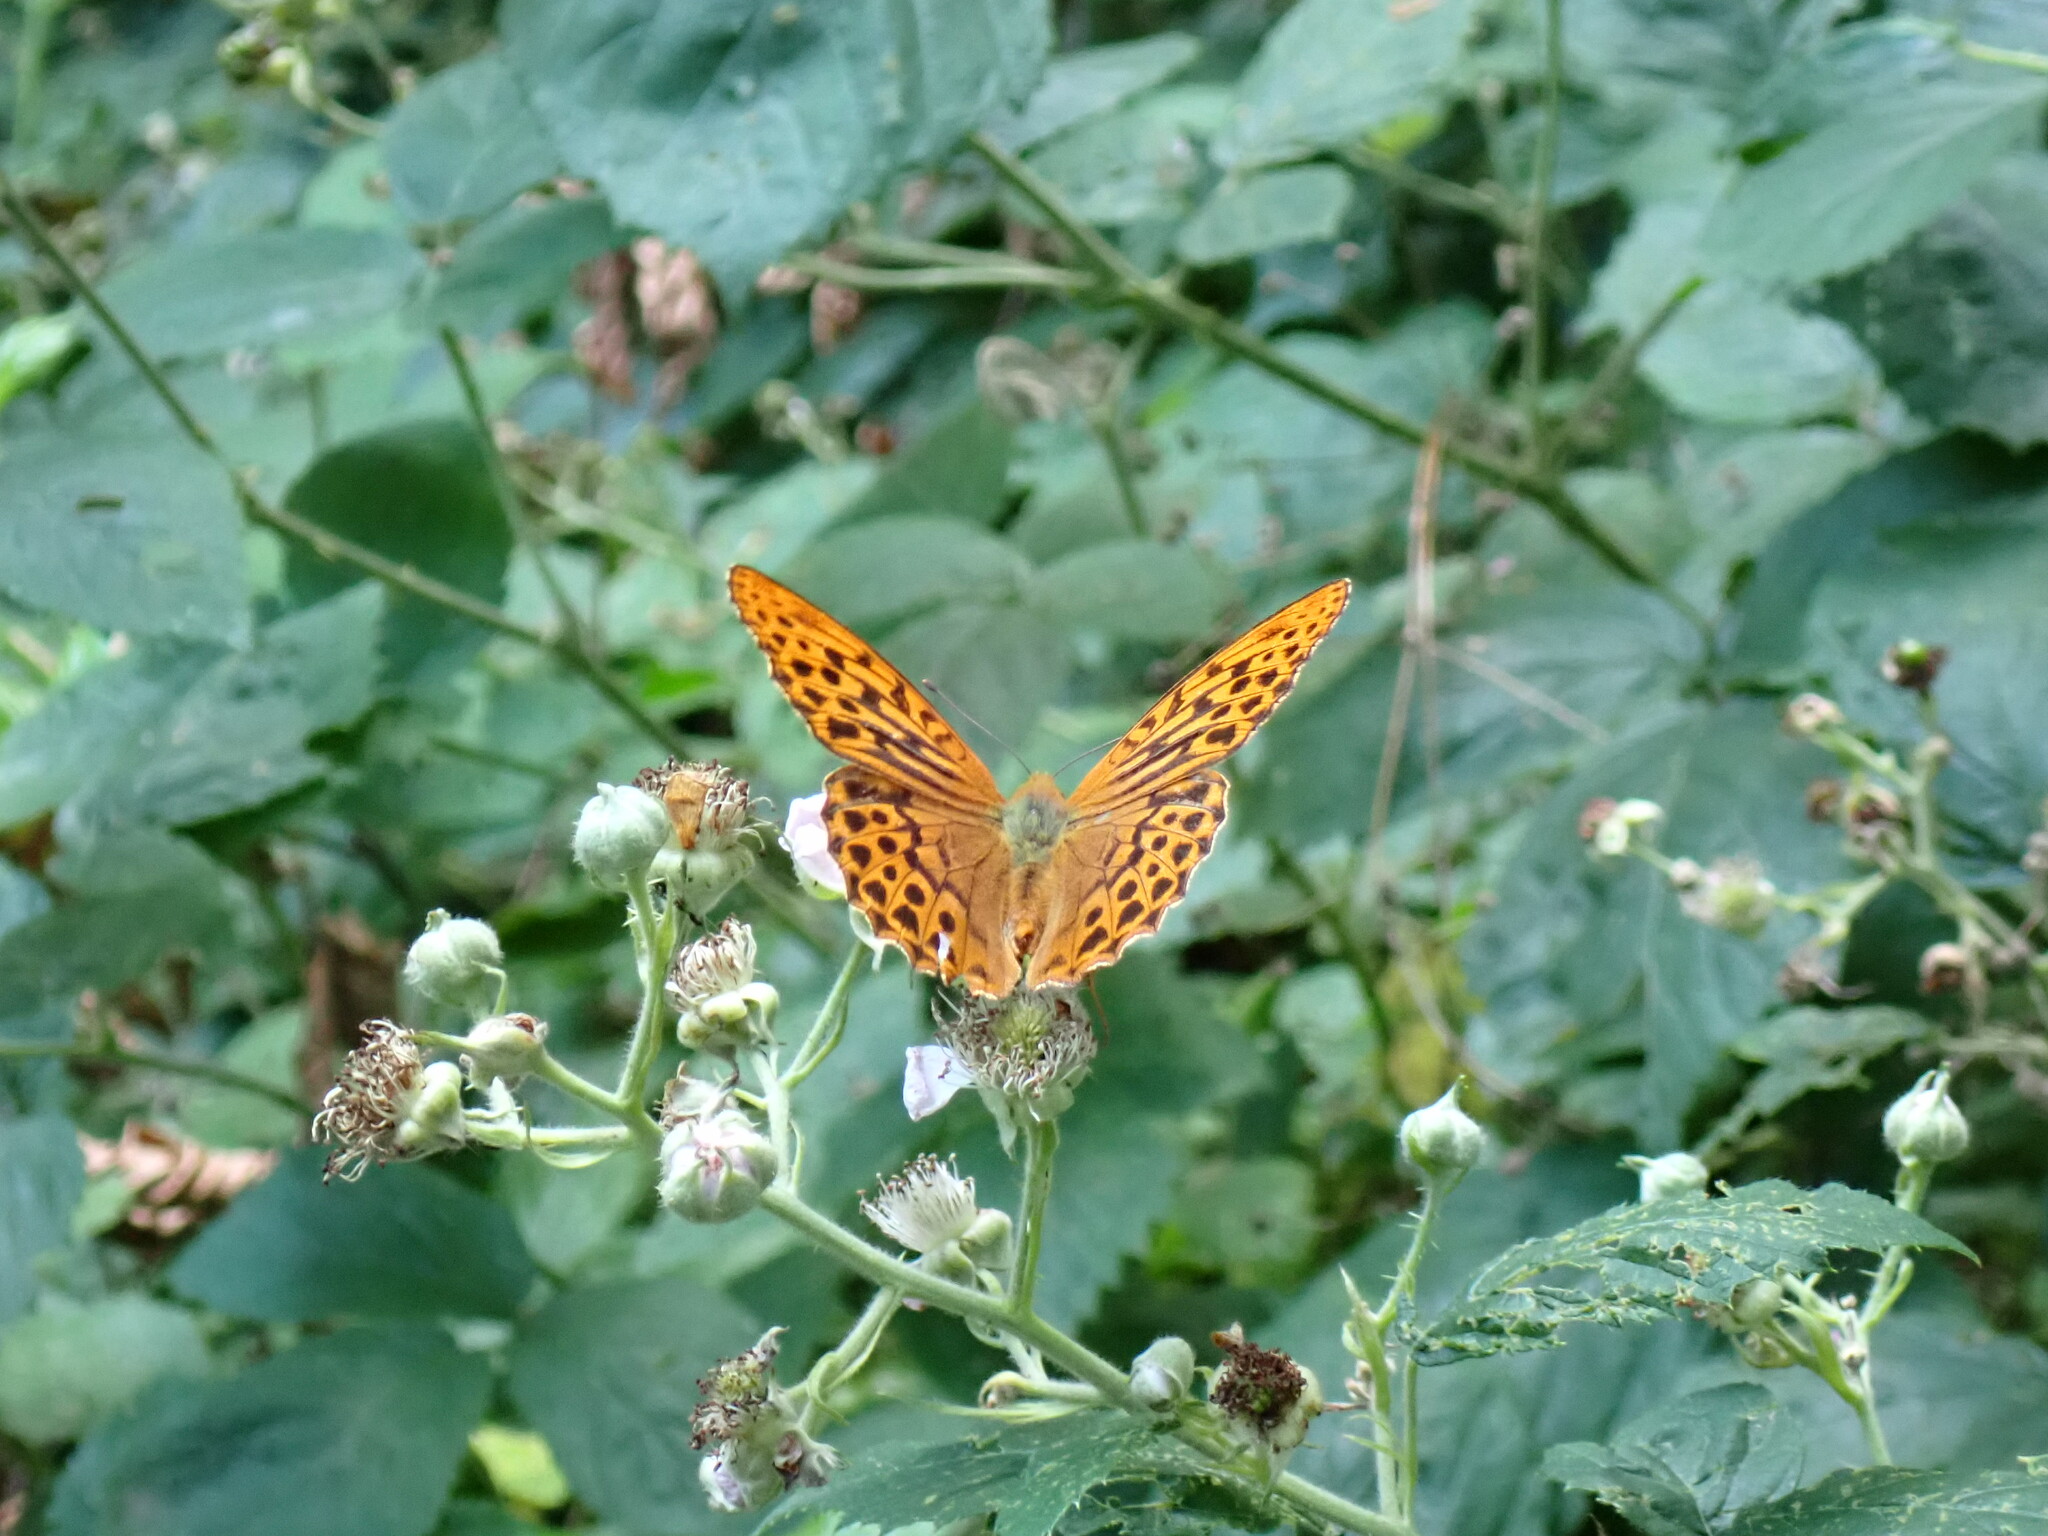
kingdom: Animalia
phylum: Arthropoda
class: Insecta
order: Lepidoptera
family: Nymphalidae
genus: Argynnis
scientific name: Argynnis paphia
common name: Silver-washed fritillary
